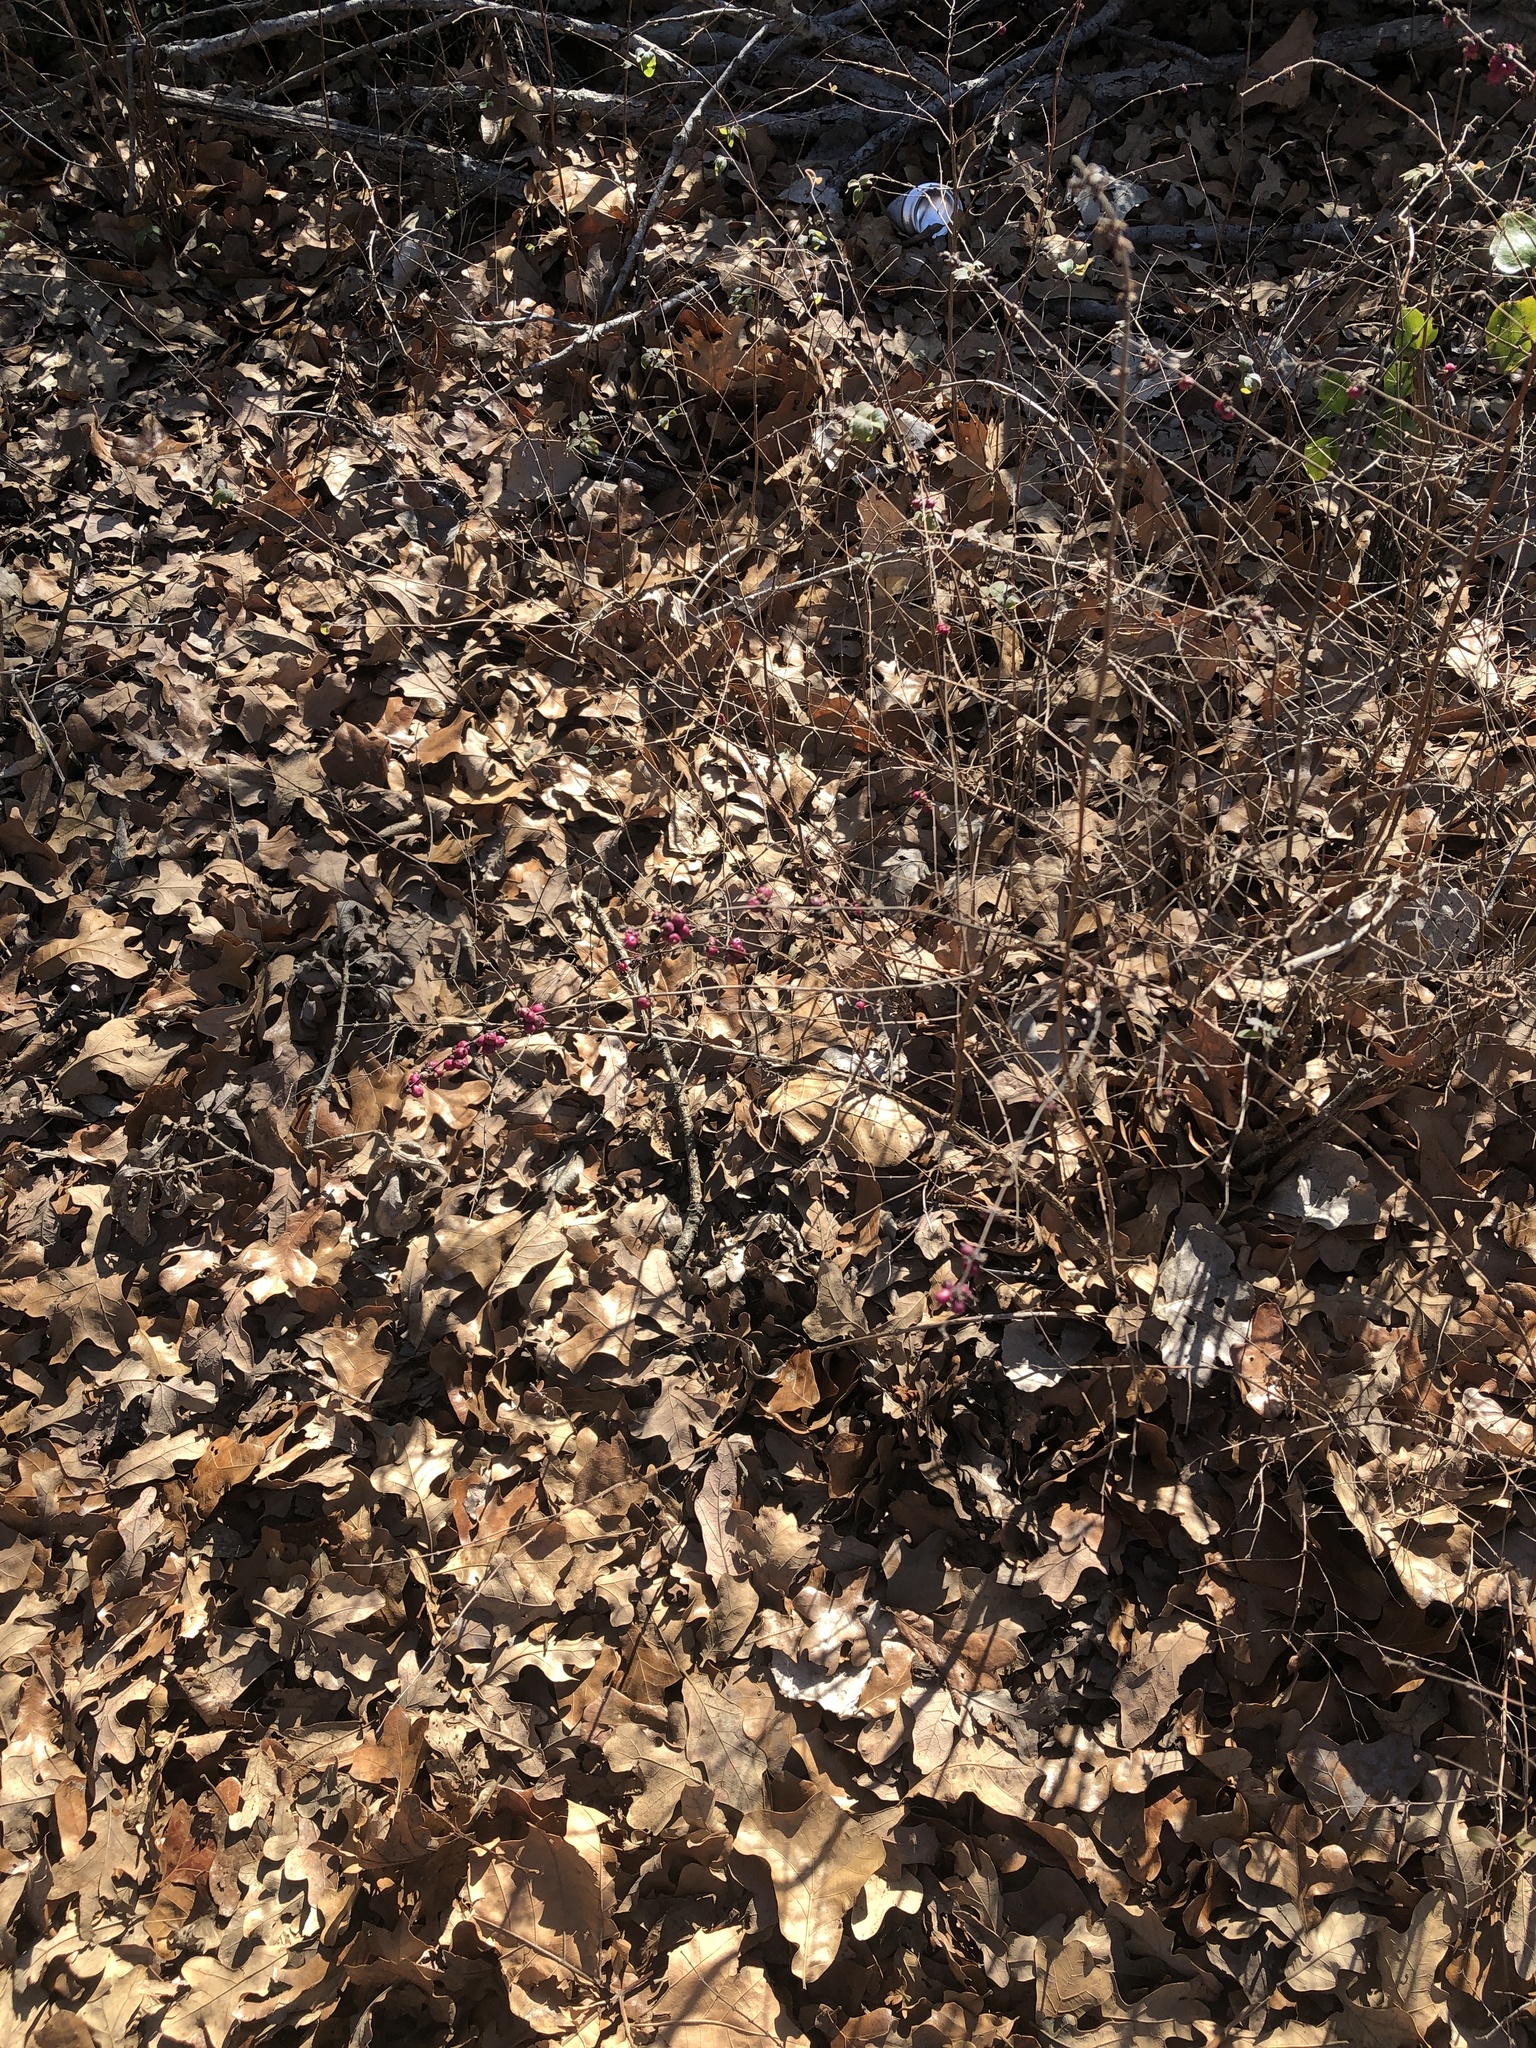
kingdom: Plantae
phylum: Tracheophyta
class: Magnoliopsida
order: Dipsacales
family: Caprifoliaceae
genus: Symphoricarpos
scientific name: Symphoricarpos orbiculatus
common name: Coralberry
